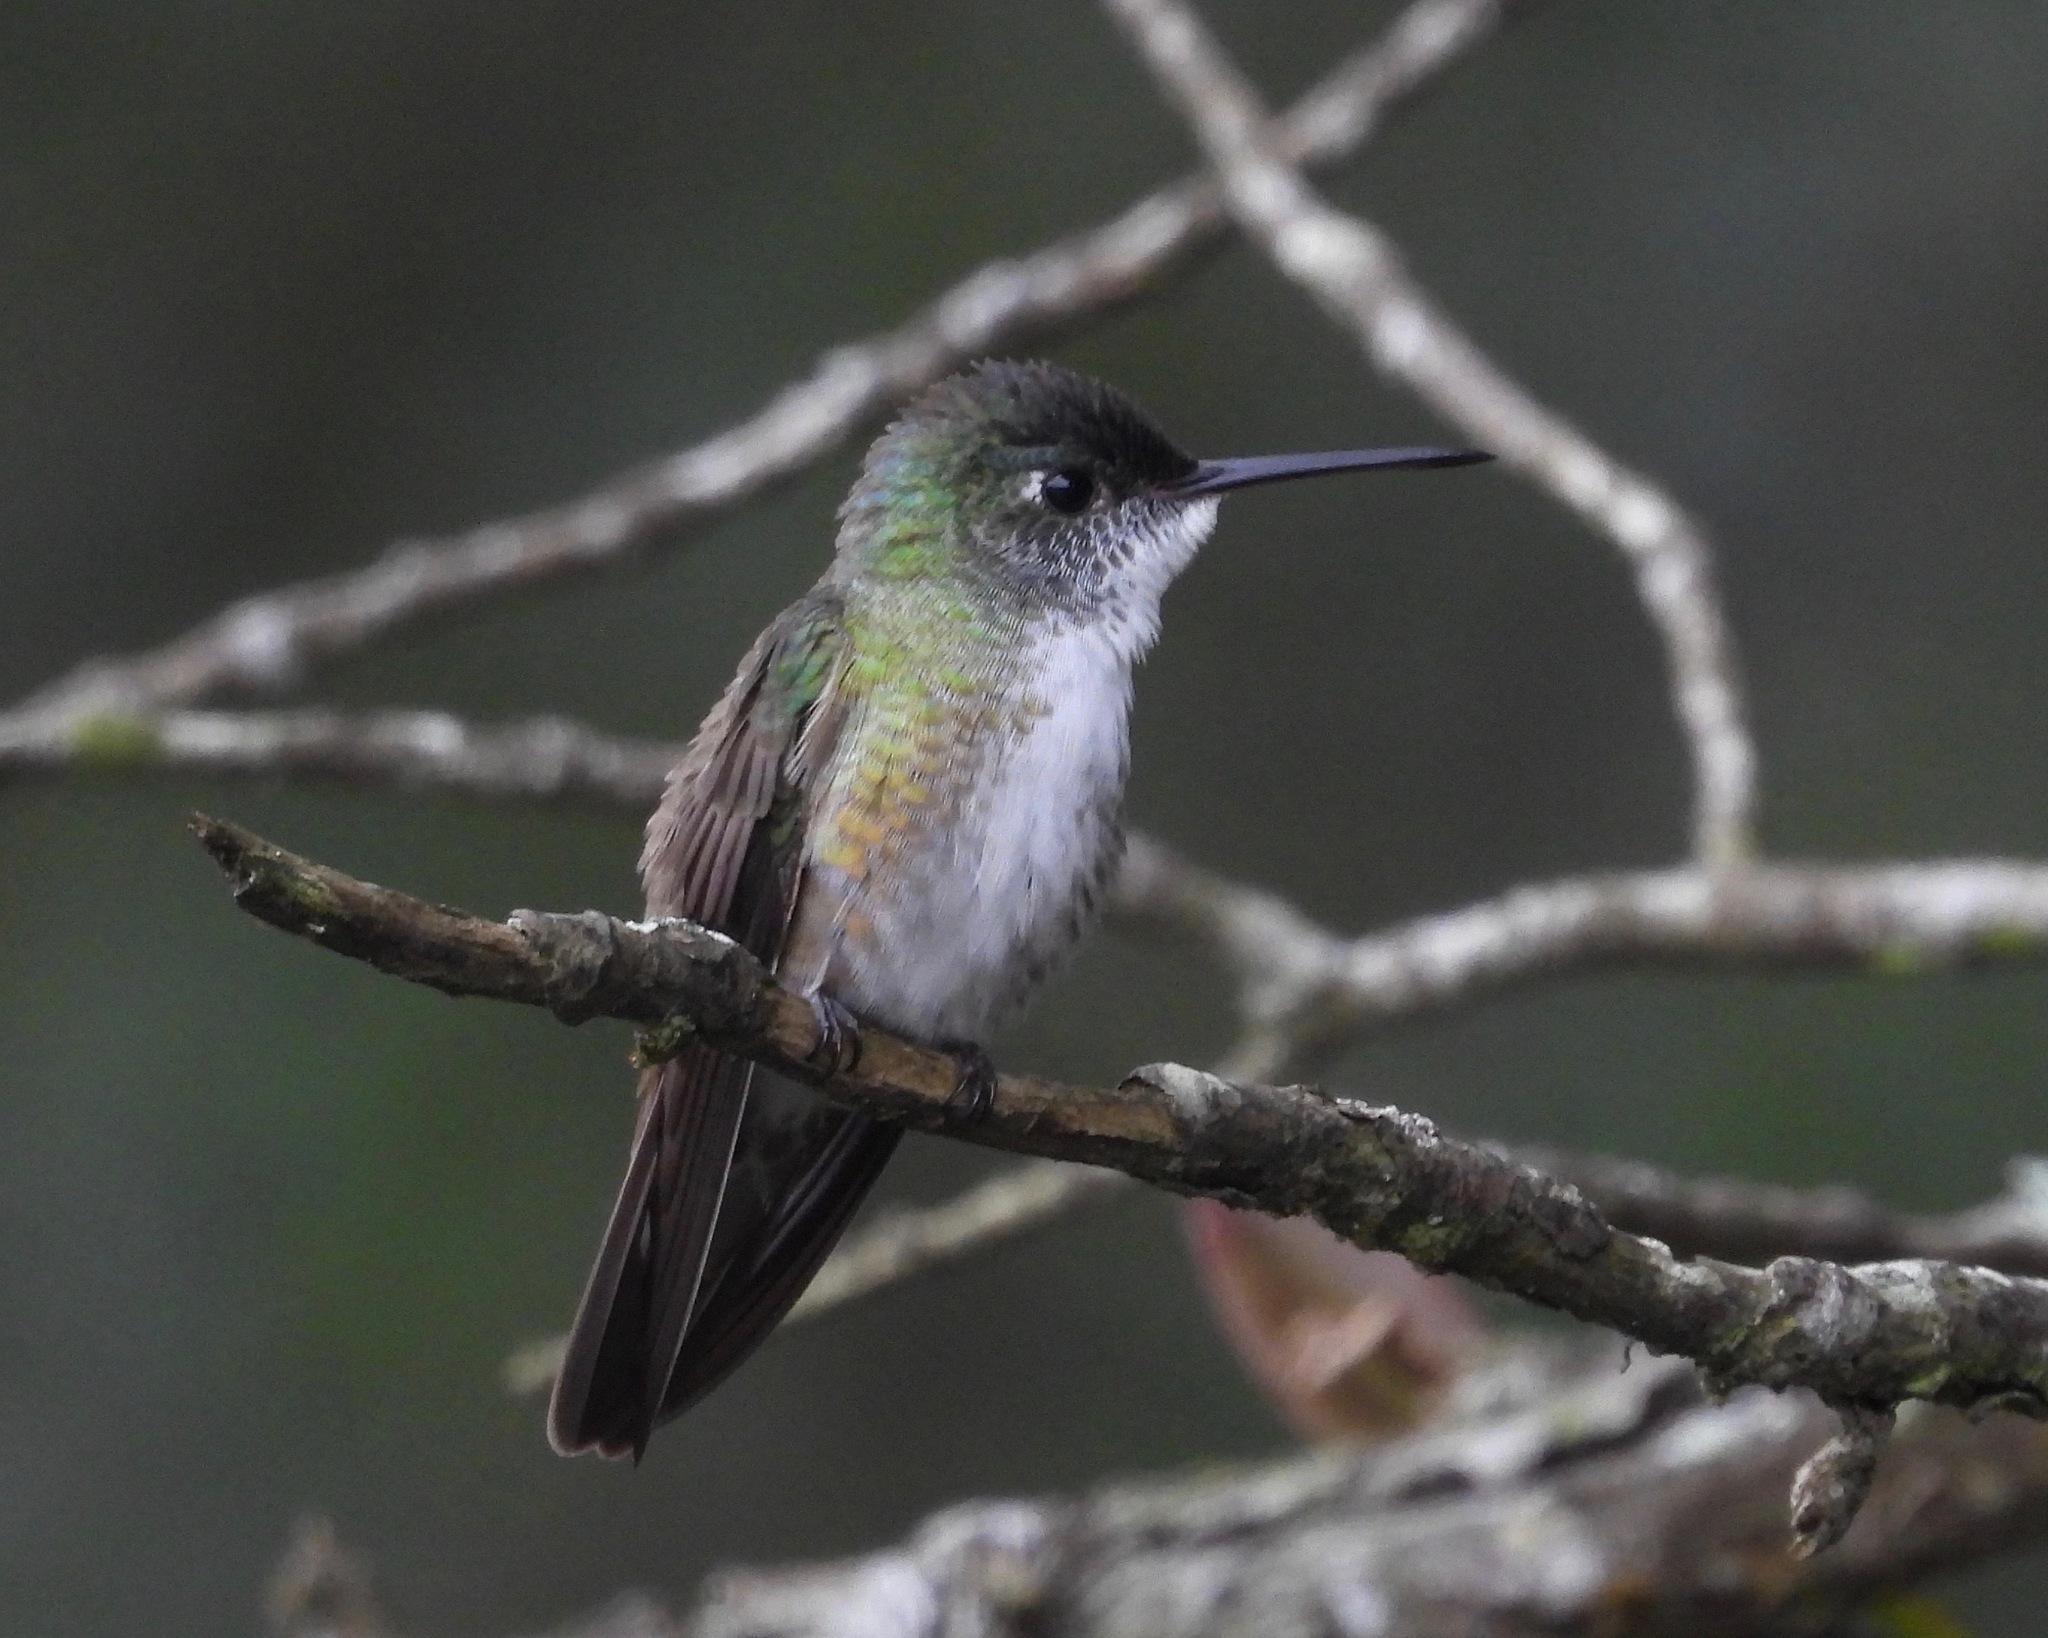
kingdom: Animalia
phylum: Chordata
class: Aves
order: Apodiformes
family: Trochilidae
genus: Saucerottia
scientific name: Saucerottia cyanocephala
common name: Azure-crowned hummingbird
